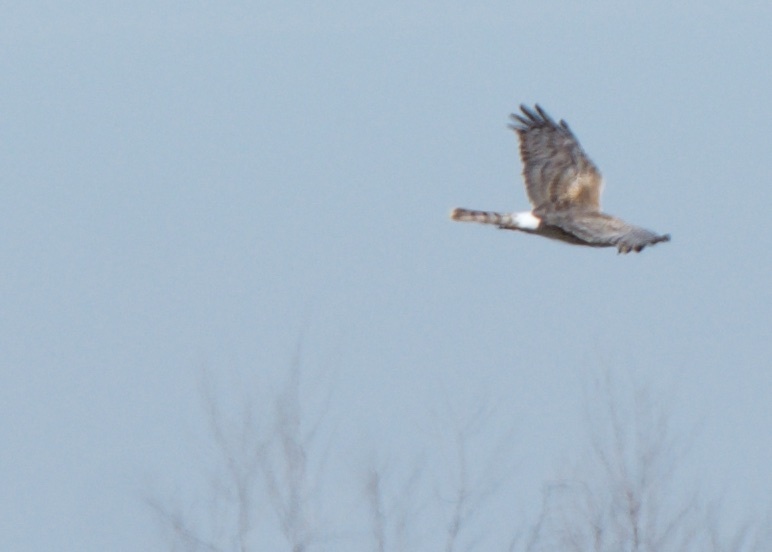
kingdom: Animalia
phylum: Chordata
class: Aves
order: Accipitriformes
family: Accipitridae
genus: Circus
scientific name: Circus cyaneus
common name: Hen harrier
